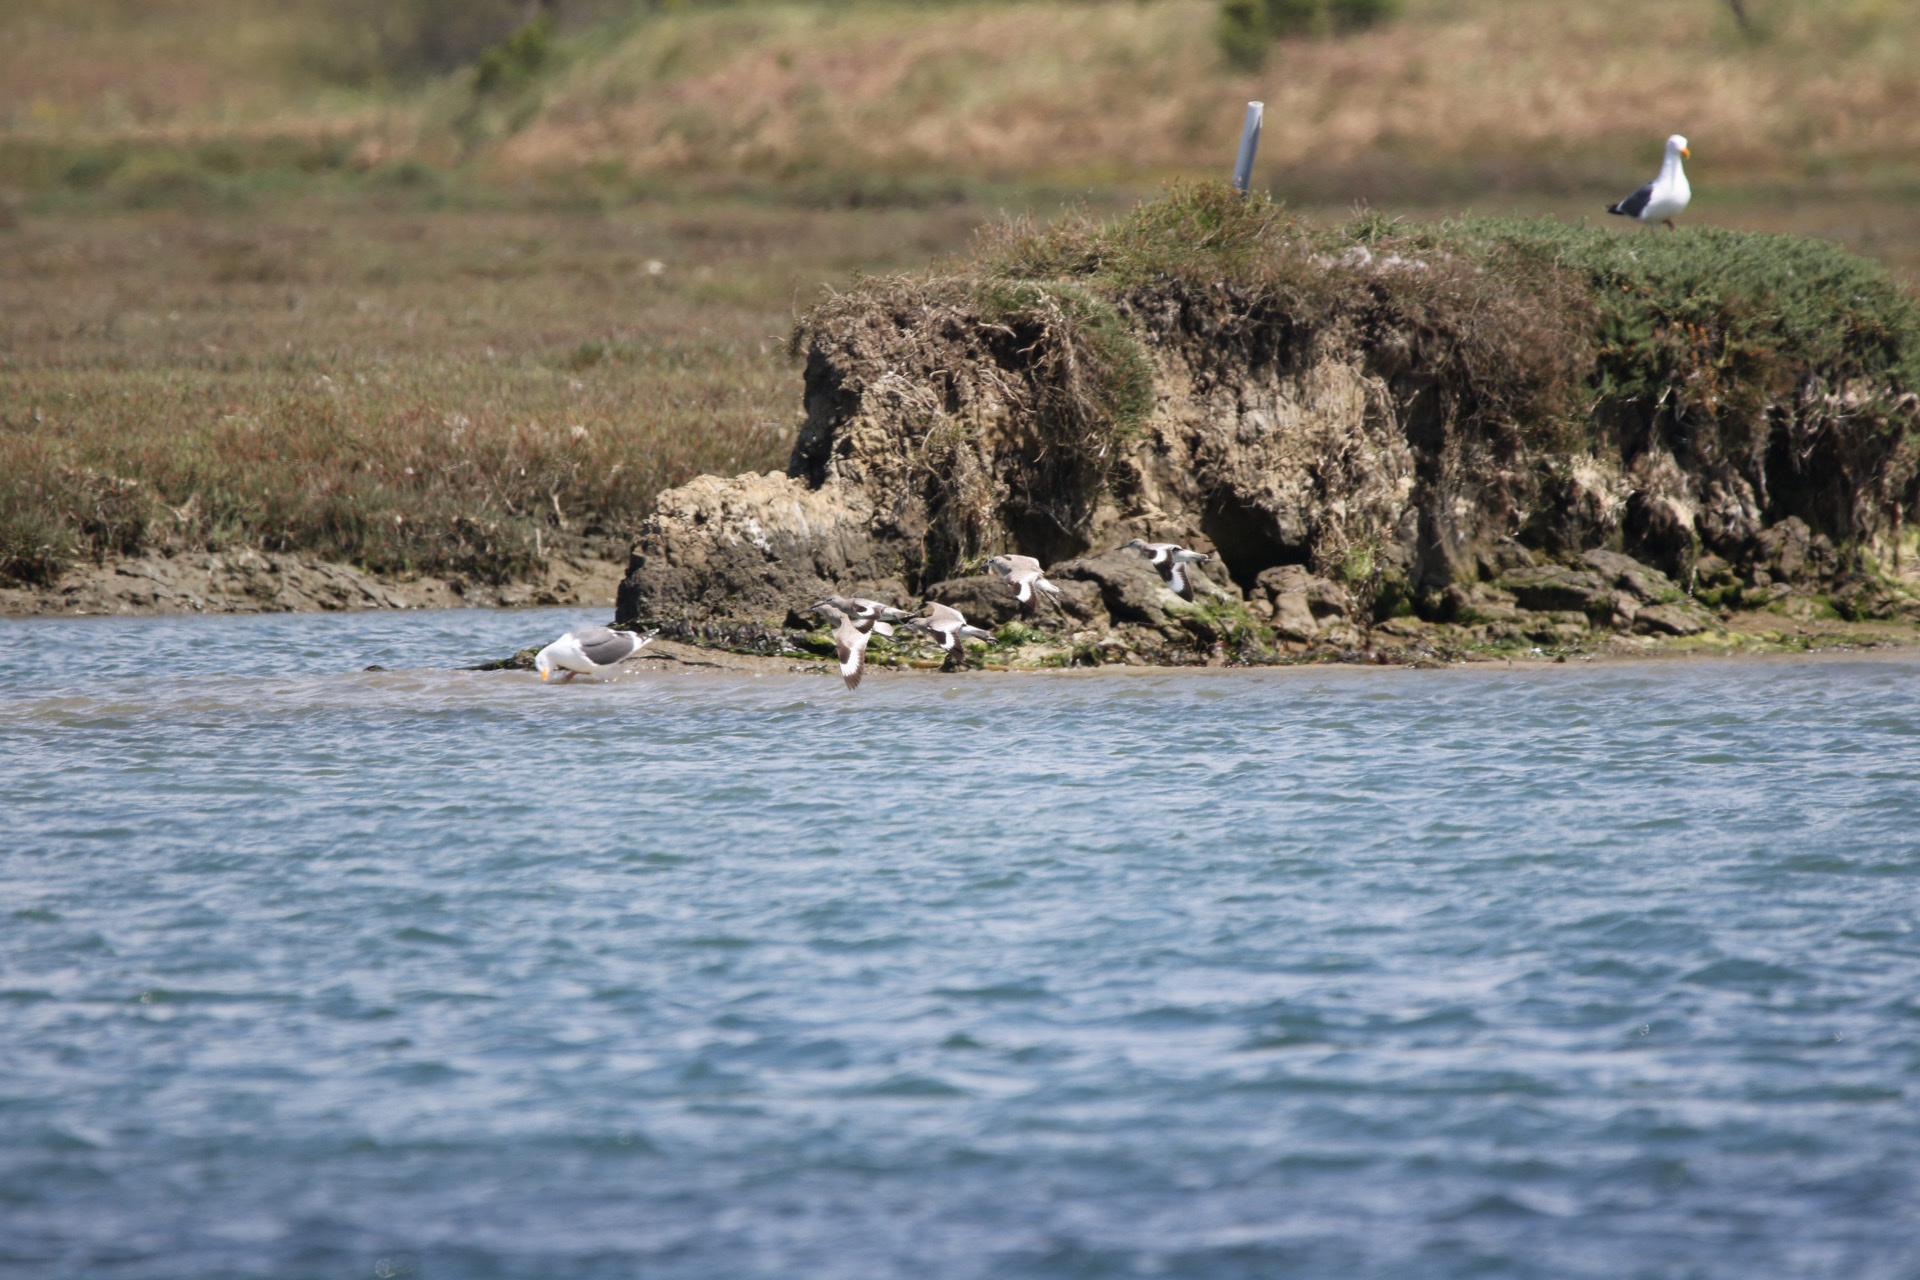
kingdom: Animalia
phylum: Chordata
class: Aves
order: Charadriiformes
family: Scolopacidae
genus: Tringa
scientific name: Tringa semipalmata
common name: Willet
